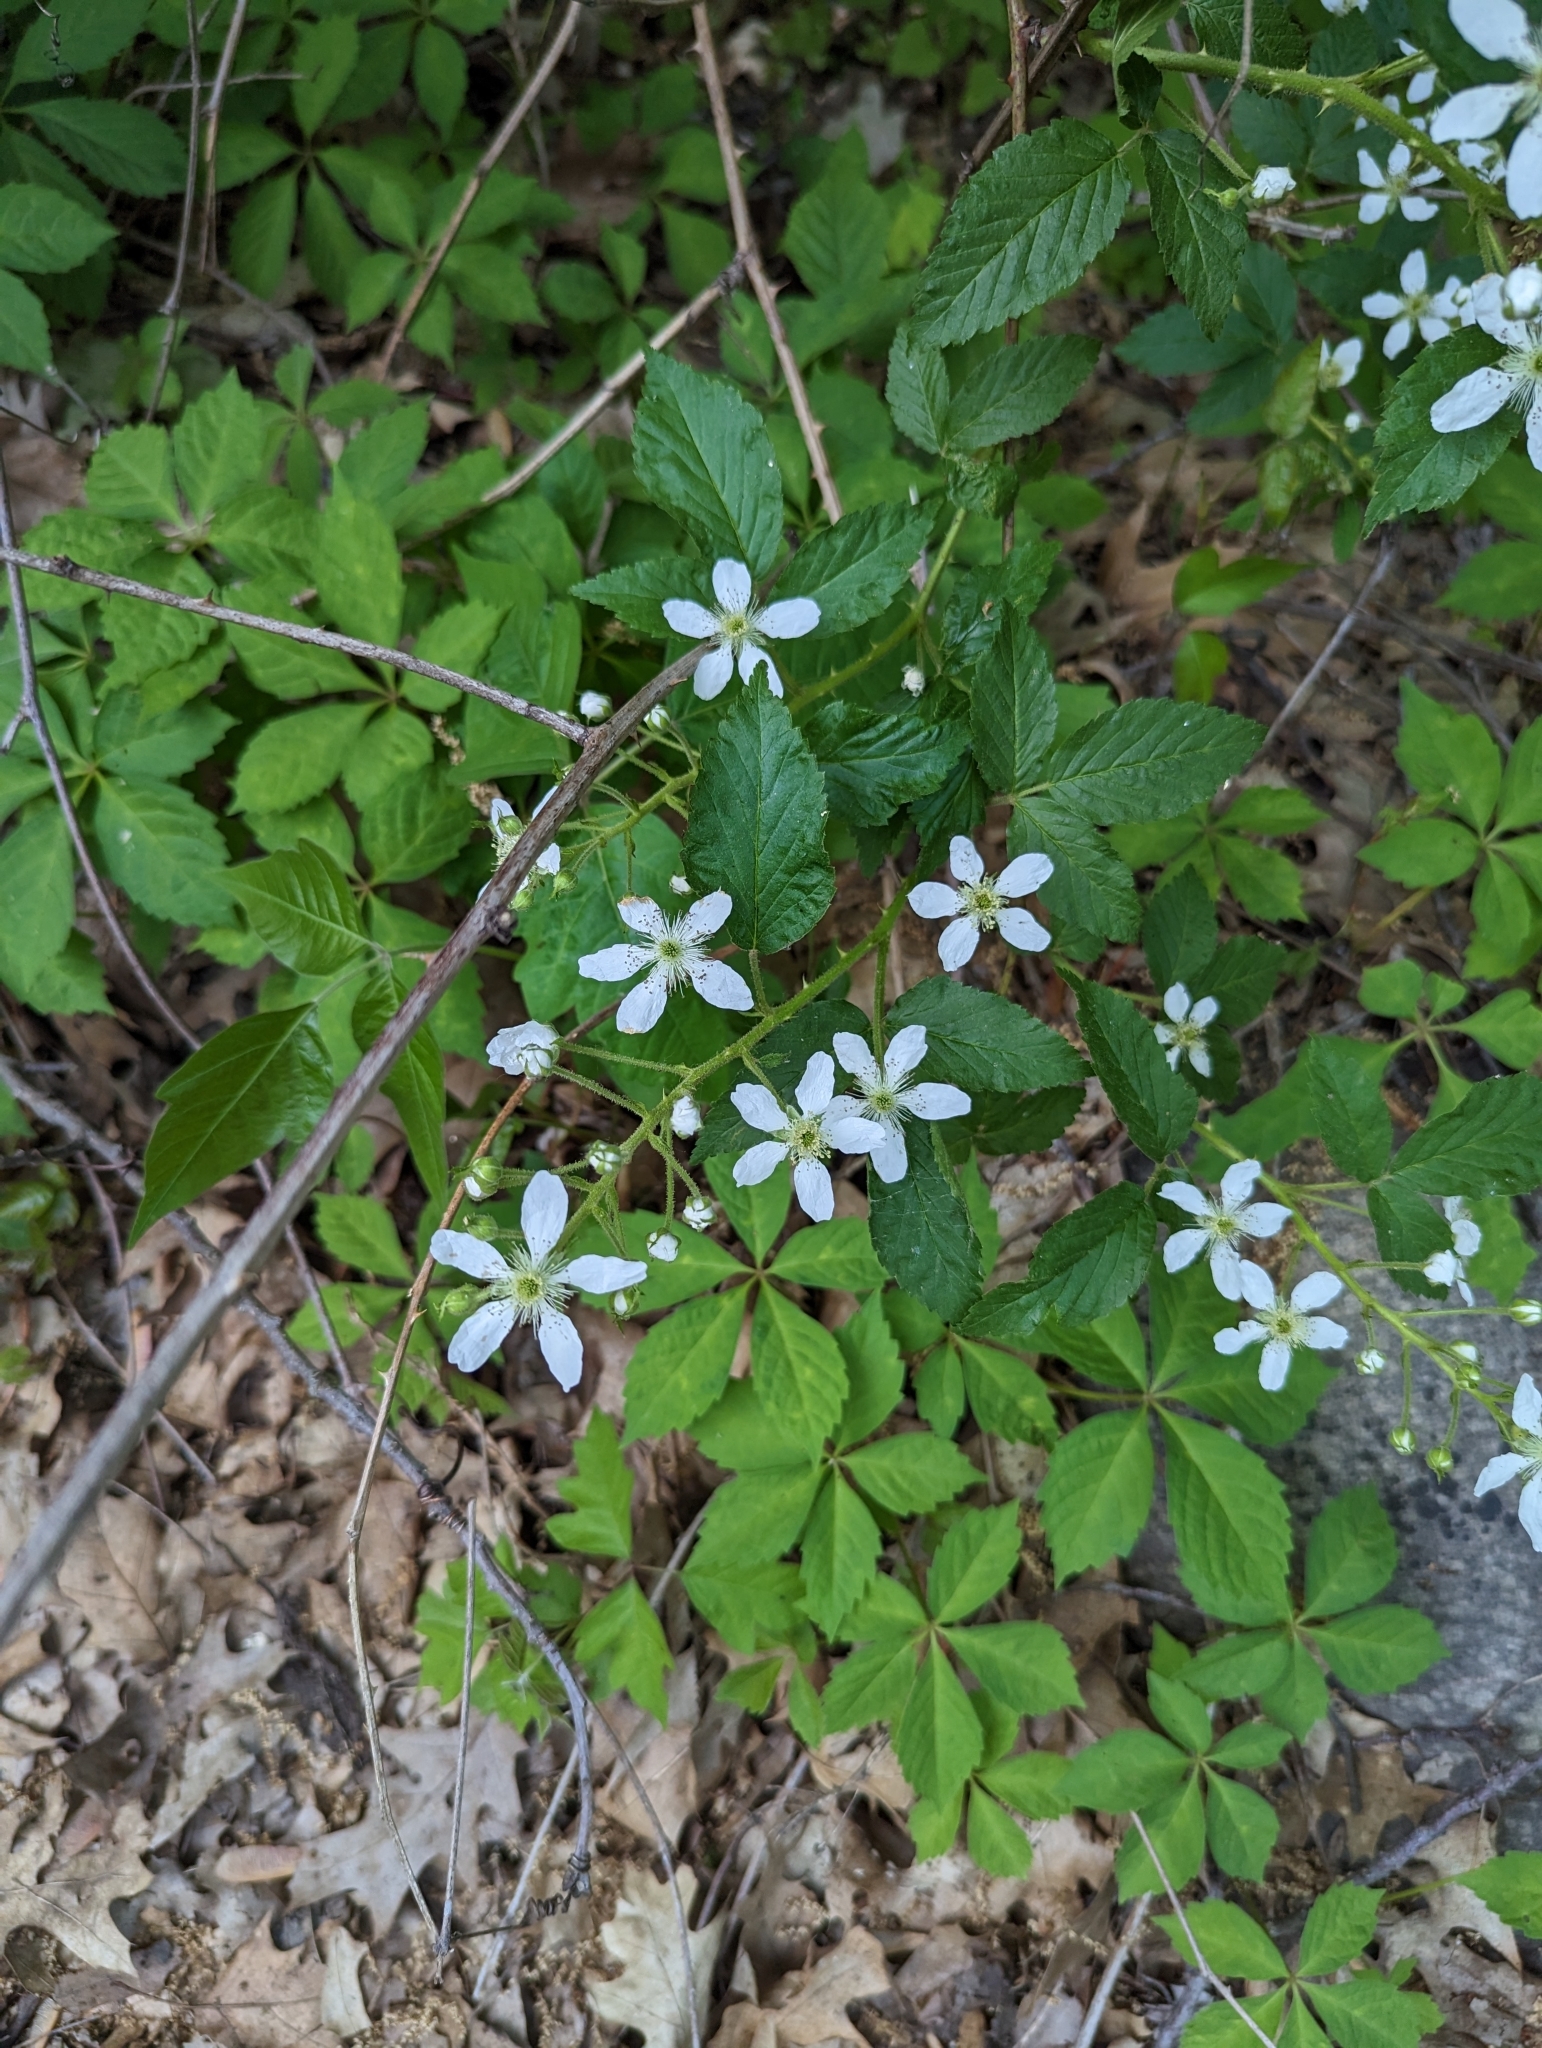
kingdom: Plantae
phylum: Tracheophyta
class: Magnoliopsida
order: Rosales
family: Rosaceae
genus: Rubus
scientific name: Rubus allegheniensis
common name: Allegheny blackberry
